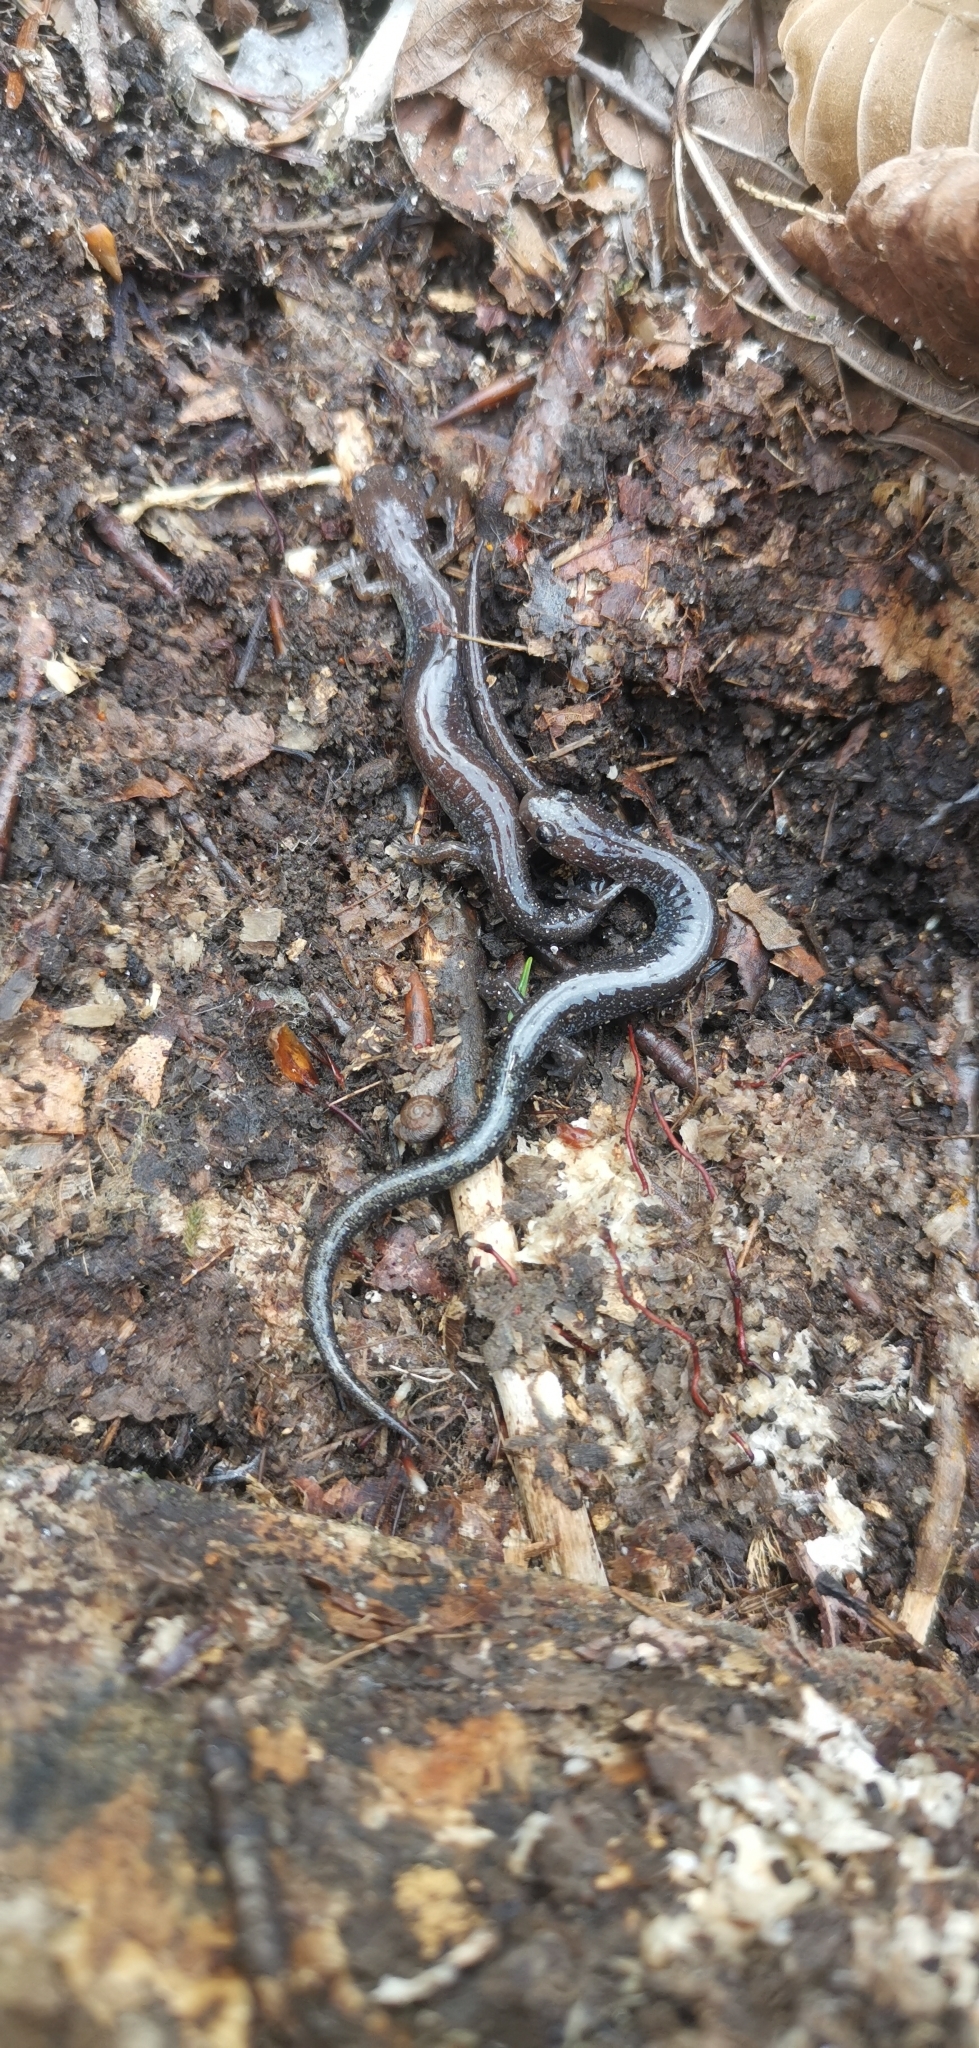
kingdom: Animalia
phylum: Chordata
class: Amphibia
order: Caudata
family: Plethodontidae
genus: Plethodon
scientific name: Plethodon cinereus
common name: Redback salamander
